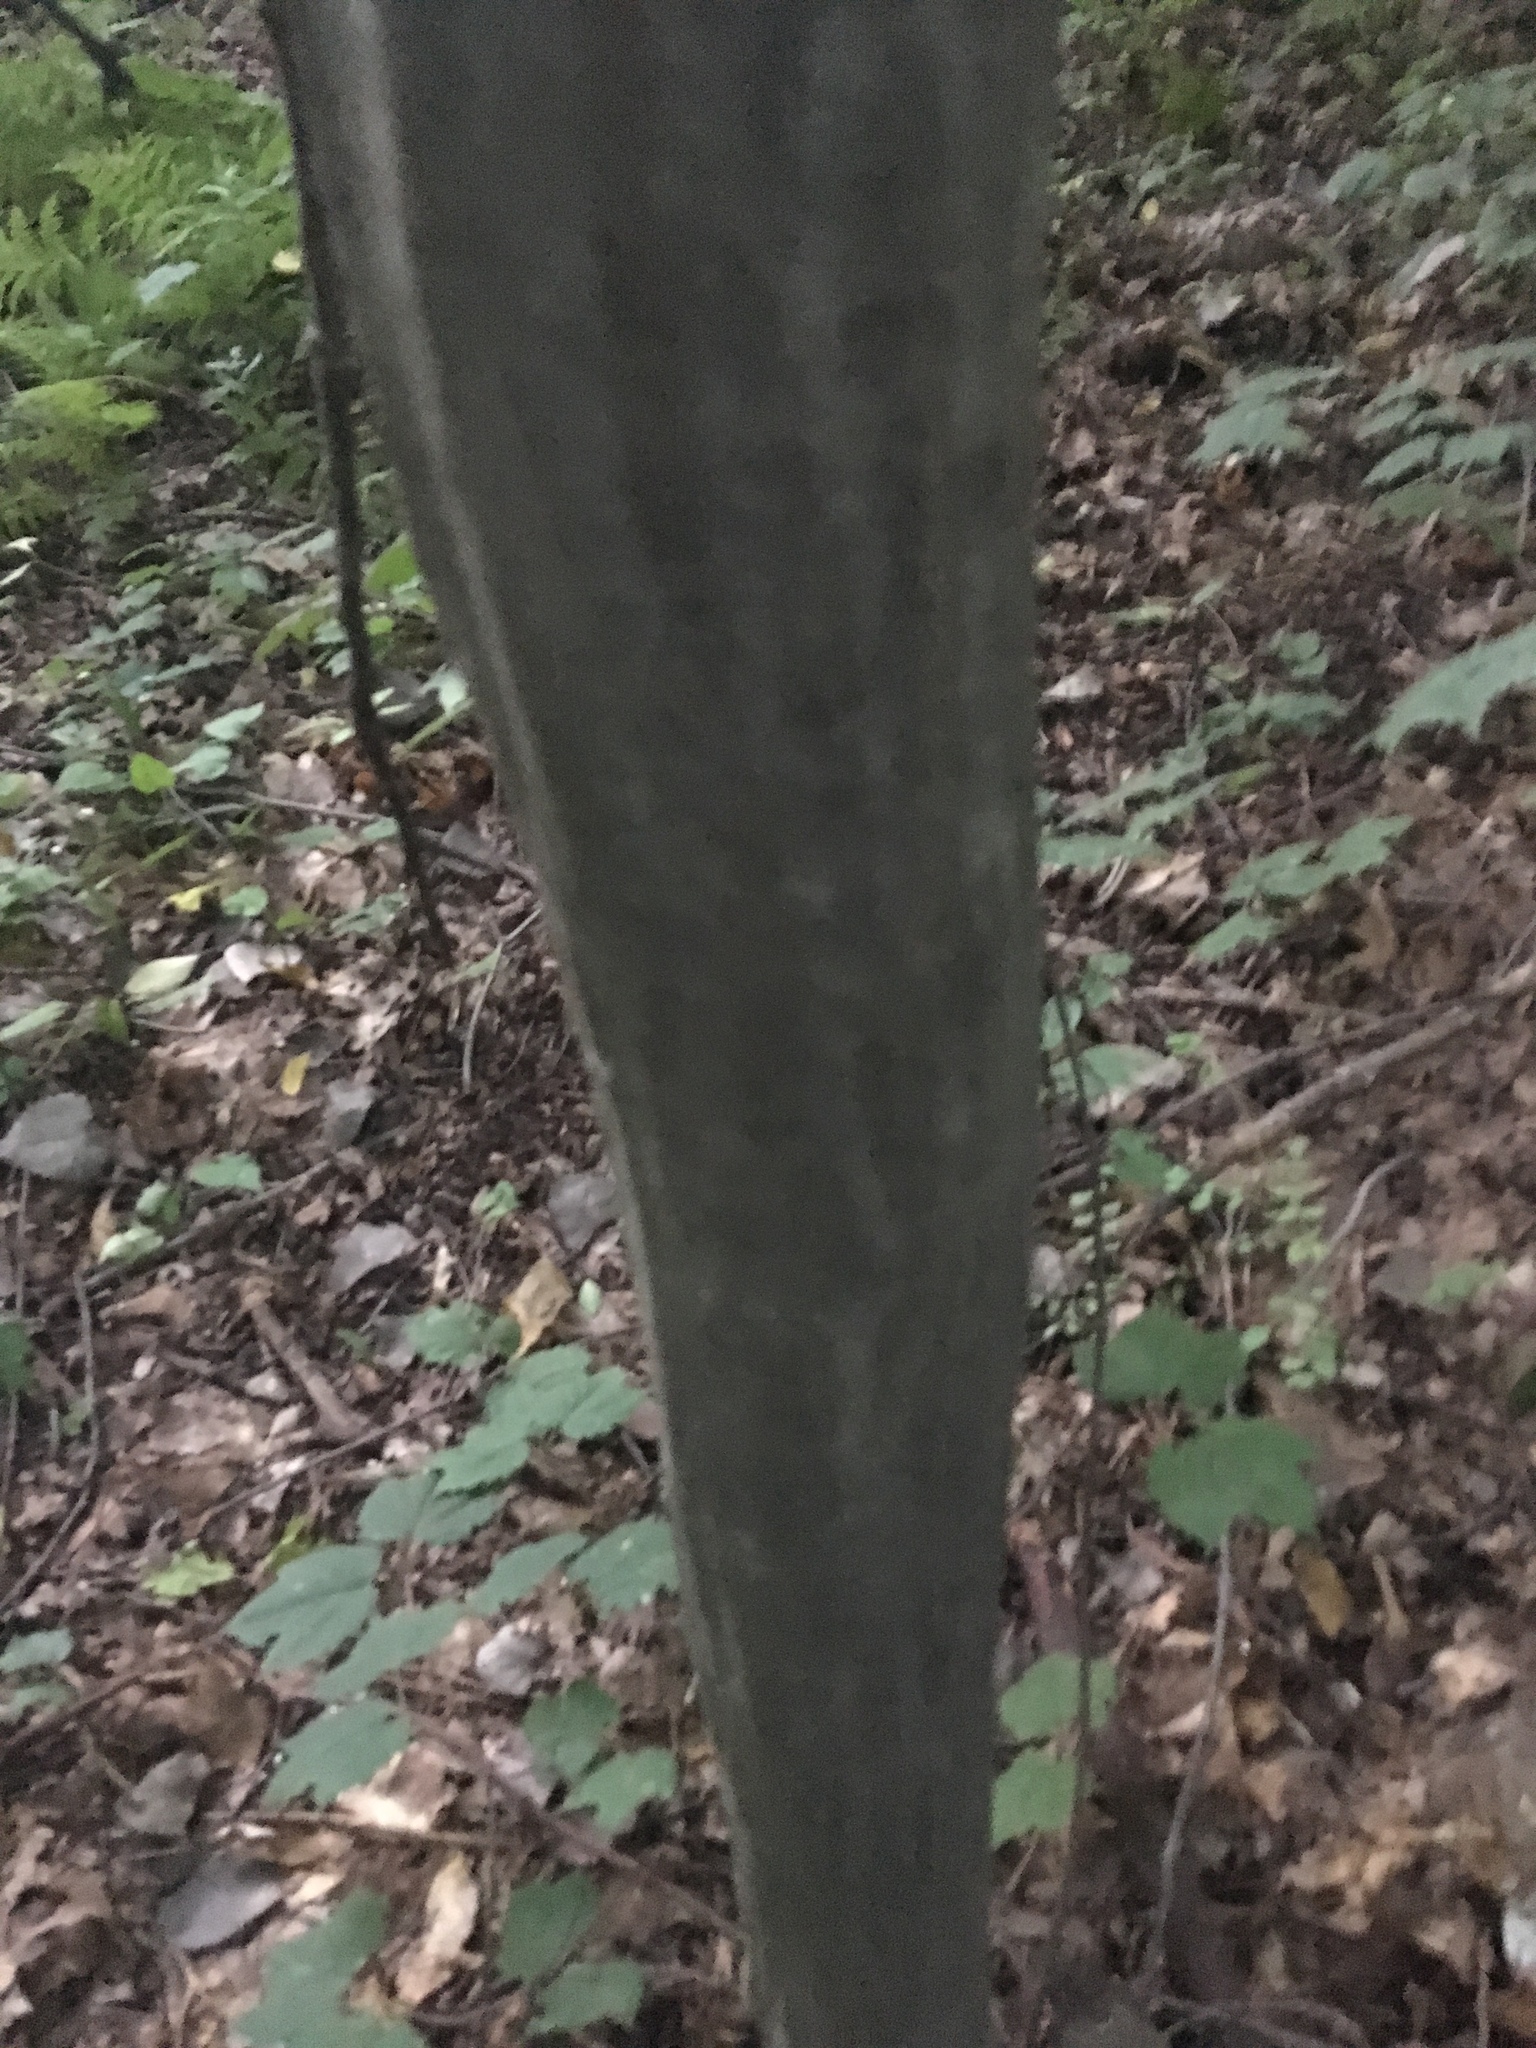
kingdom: Plantae
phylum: Tracheophyta
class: Magnoliopsida
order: Fagales
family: Betulaceae
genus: Carpinus
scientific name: Carpinus caroliniana
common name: American hornbeam
